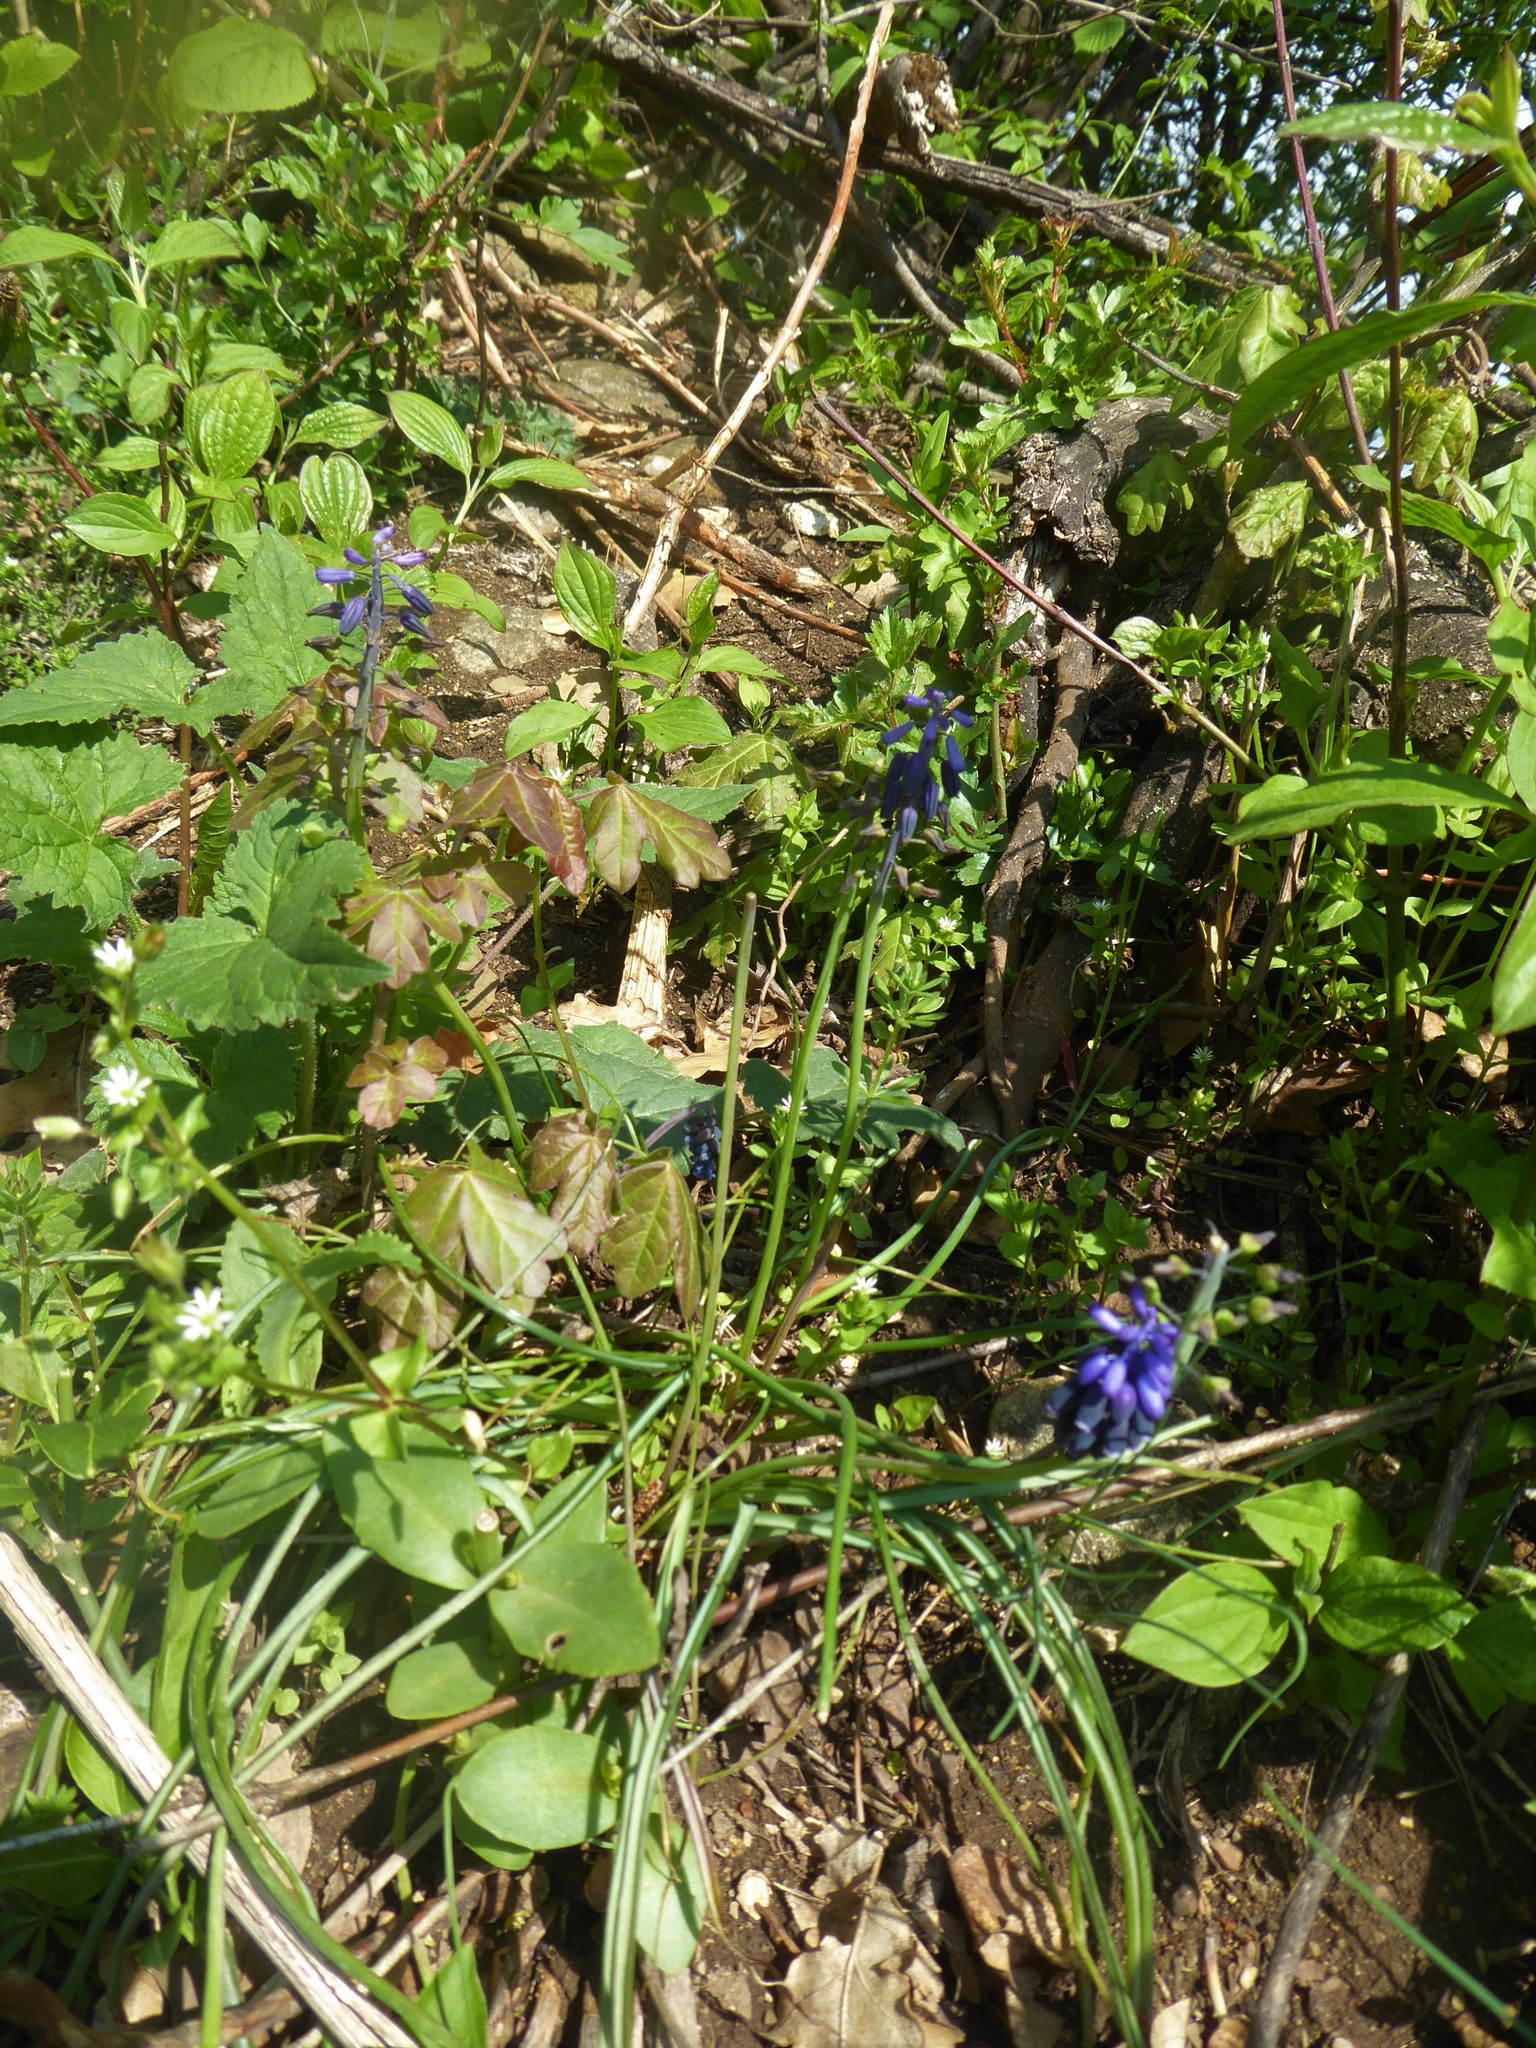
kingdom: Plantae
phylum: Tracheophyta
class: Liliopsida
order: Asparagales
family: Asparagaceae
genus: Muscari
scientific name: Muscari neglectum
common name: Grape-hyacinth
